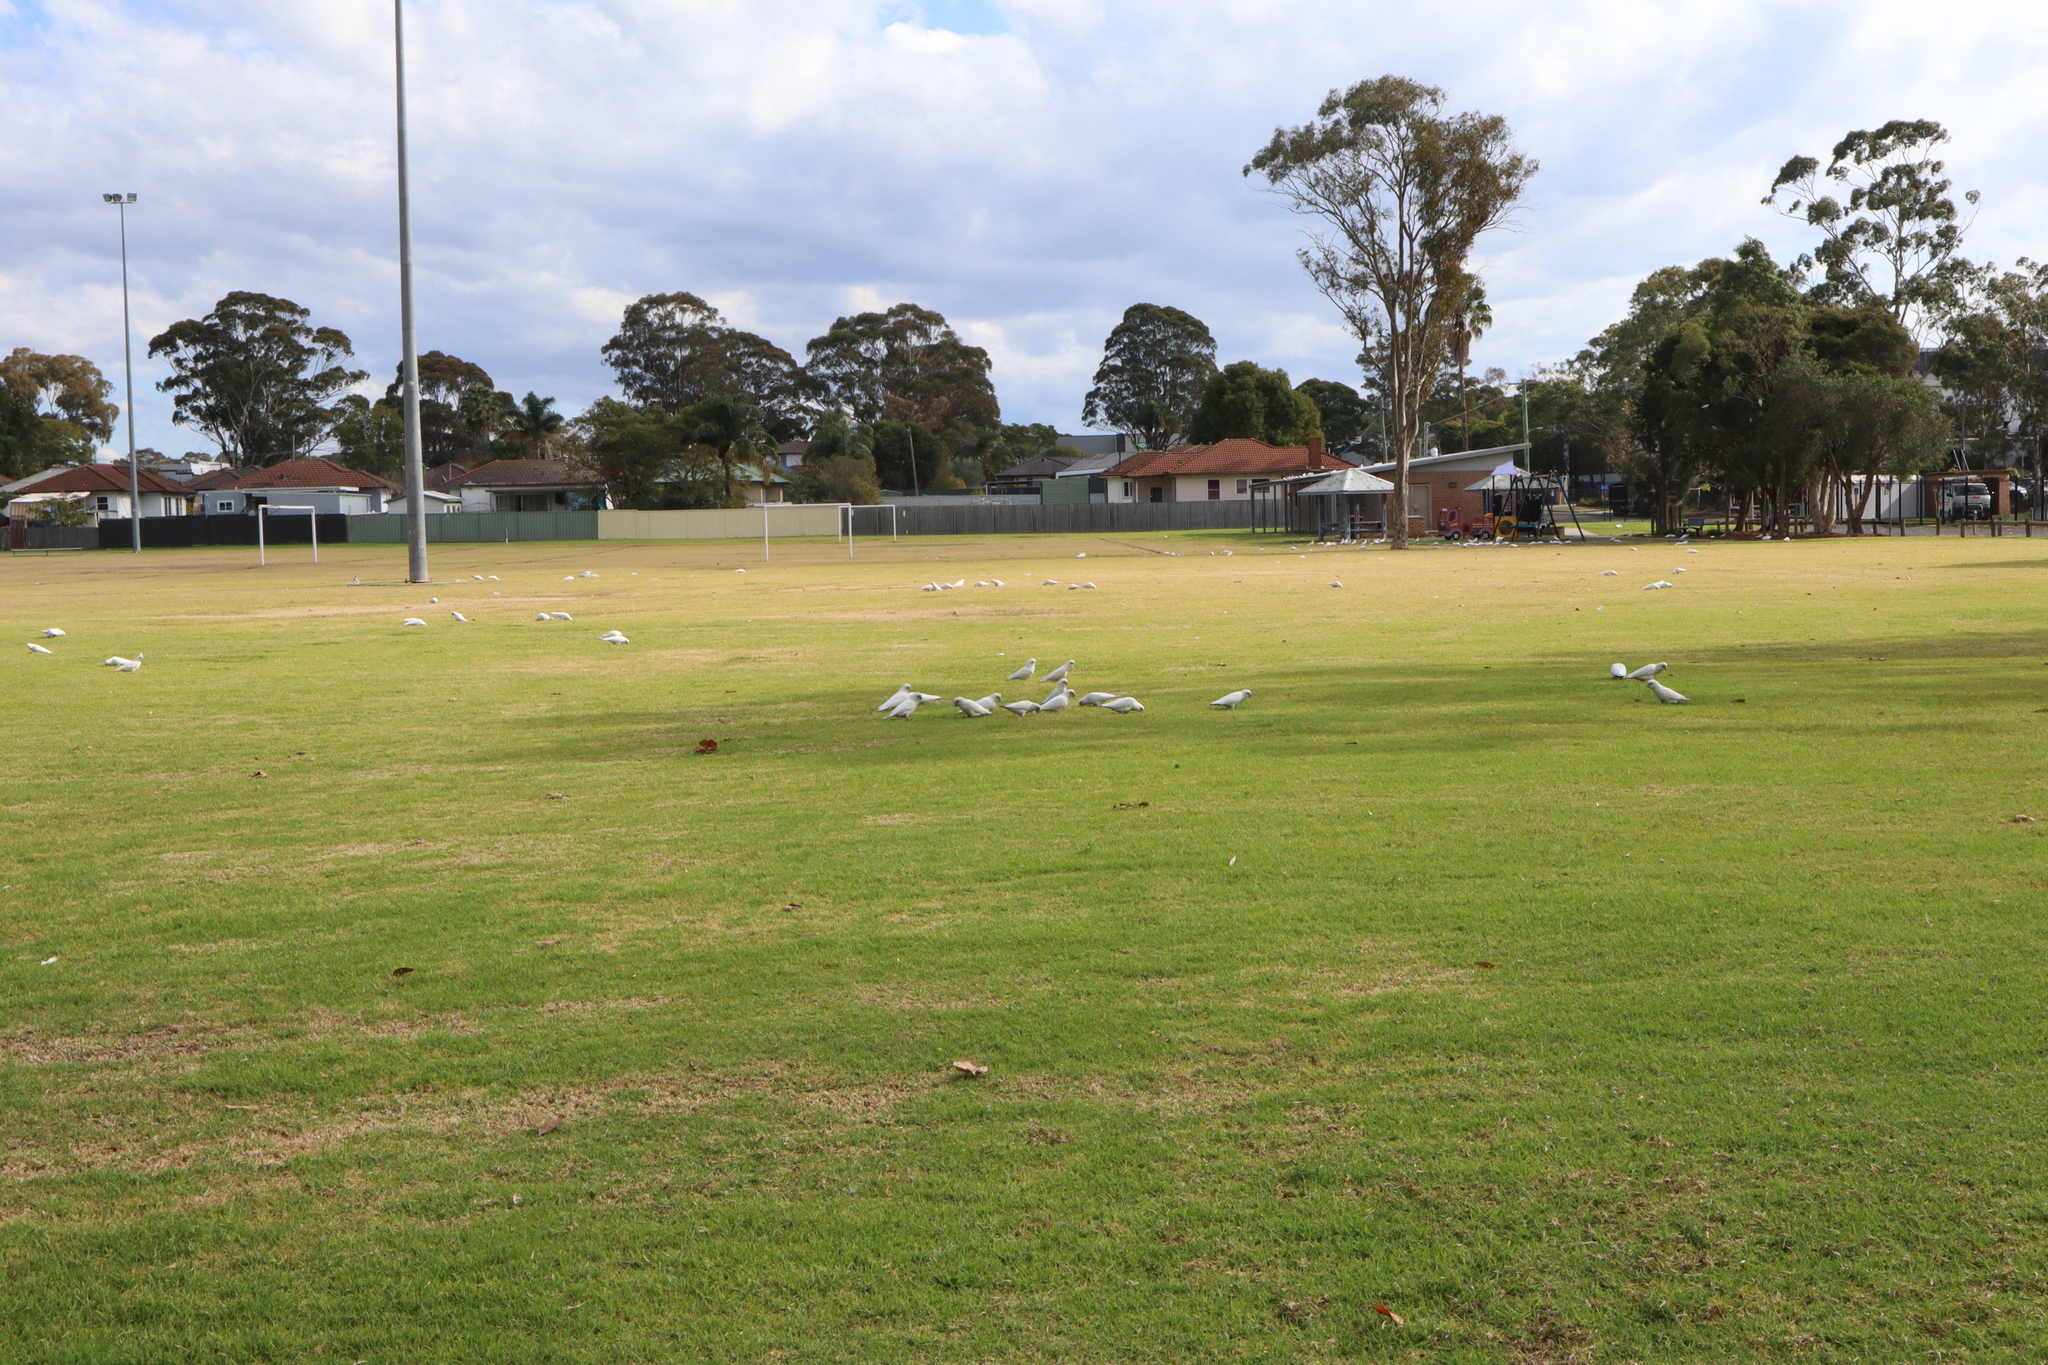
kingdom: Animalia
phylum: Chordata
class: Aves
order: Psittaciformes
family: Psittacidae
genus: Cacatua
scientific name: Cacatua sanguinea
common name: Little corella
